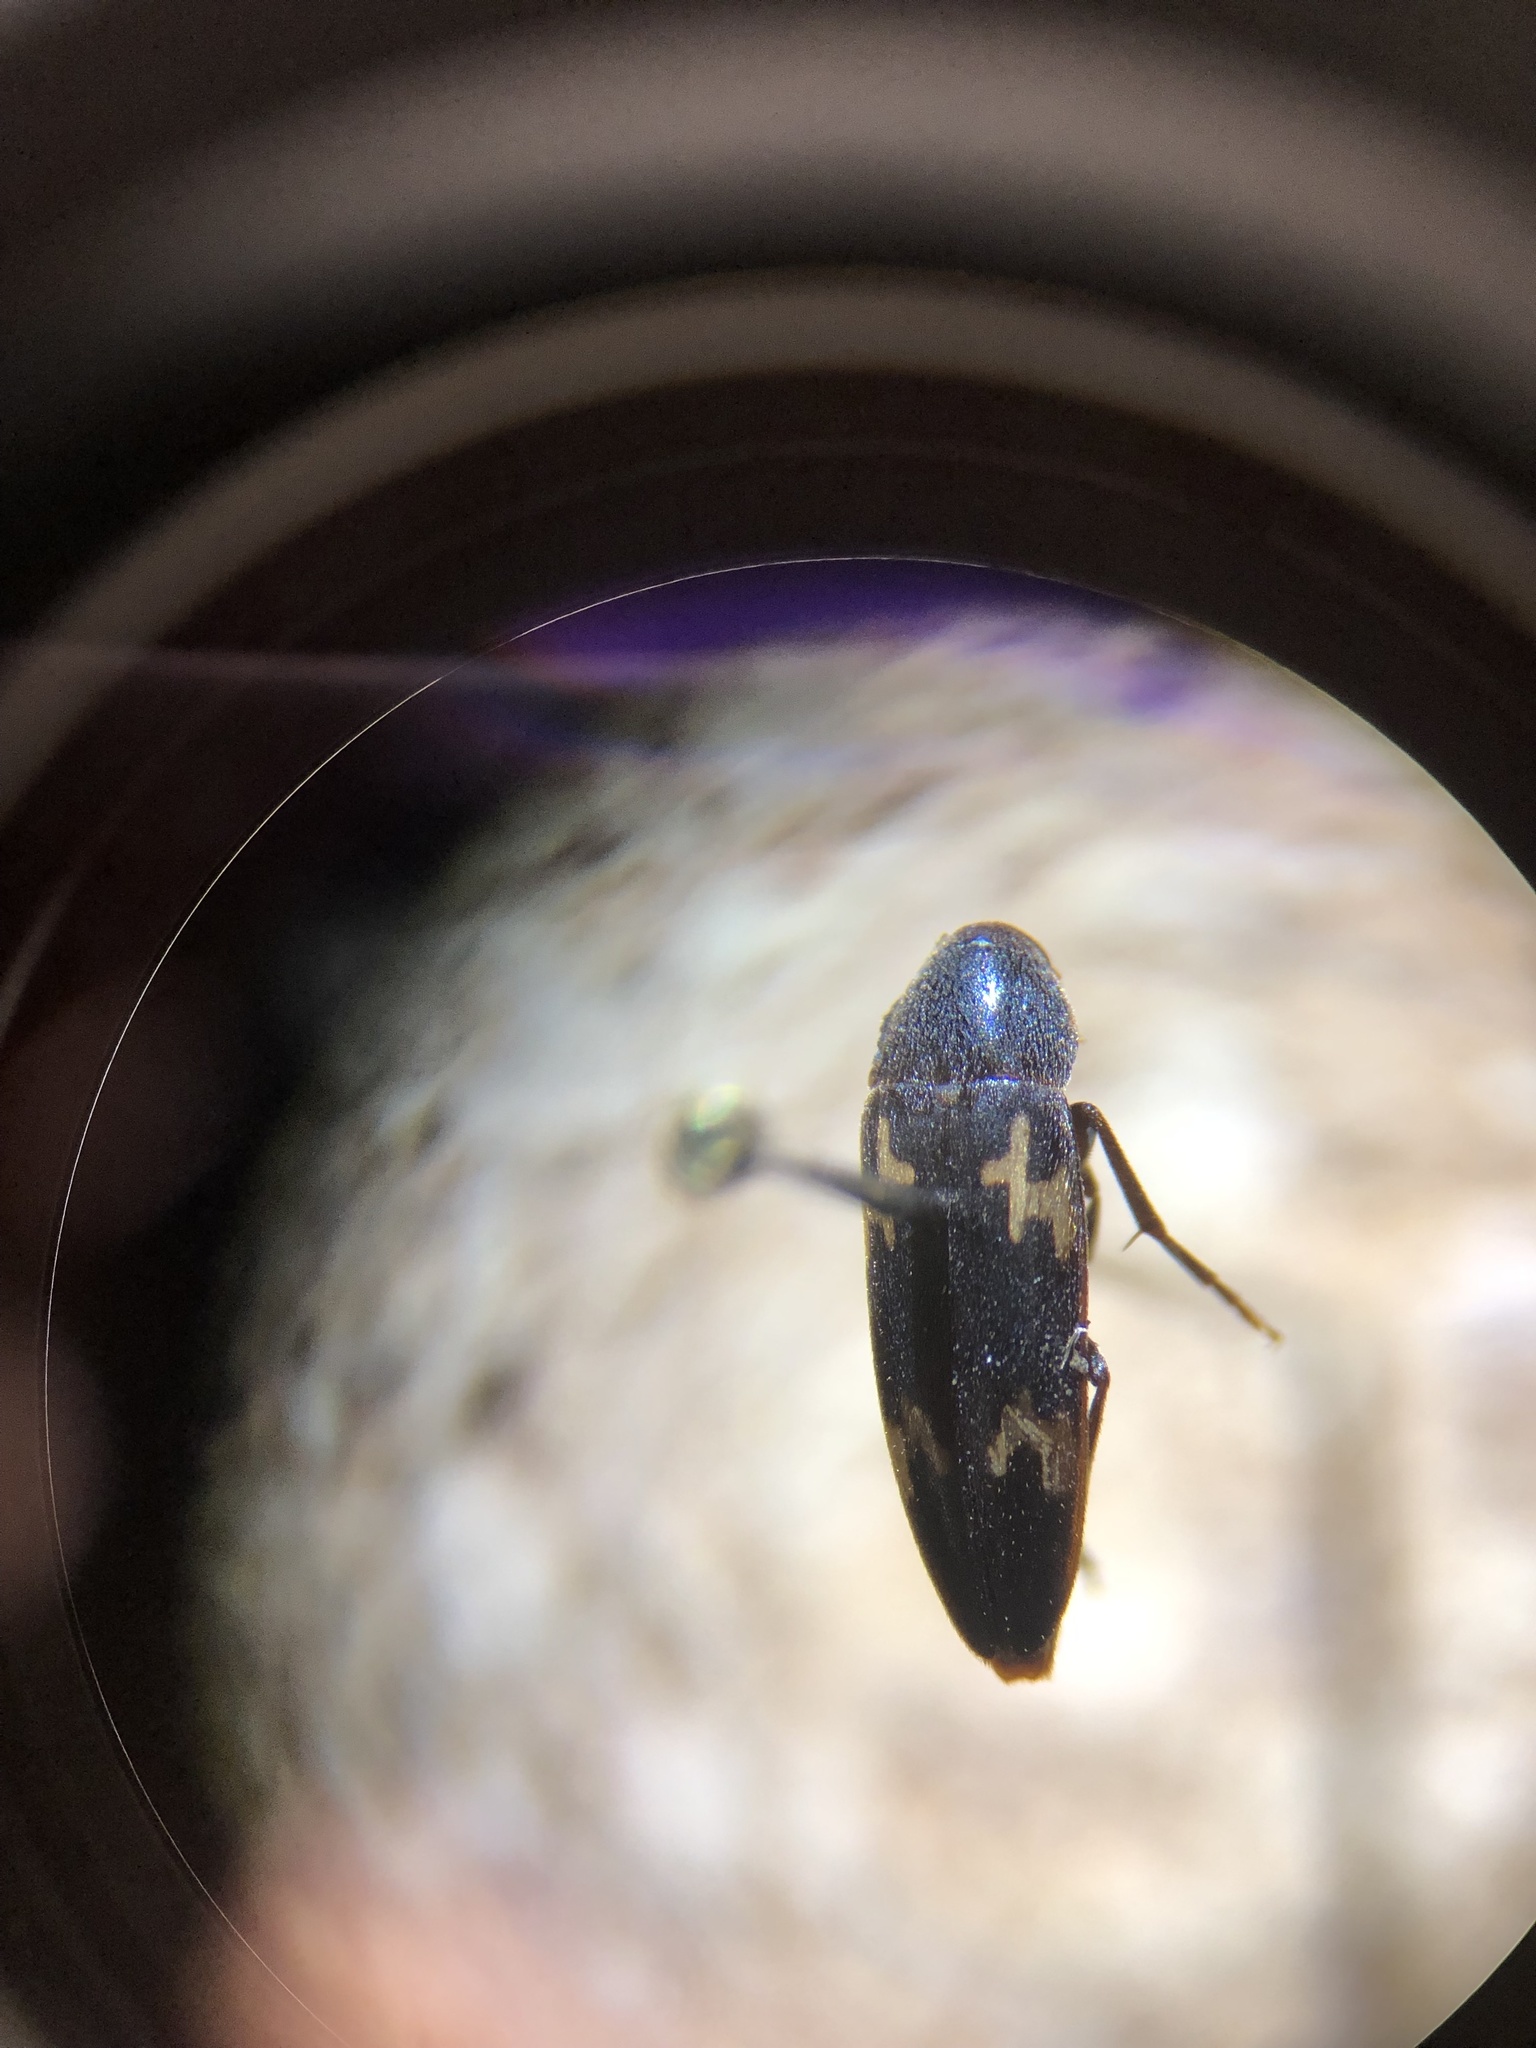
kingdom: Animalia
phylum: Arthropoda
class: Insecta
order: Coleoptera
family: Melandryidae
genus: Dircaea
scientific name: Dircaea liturata
